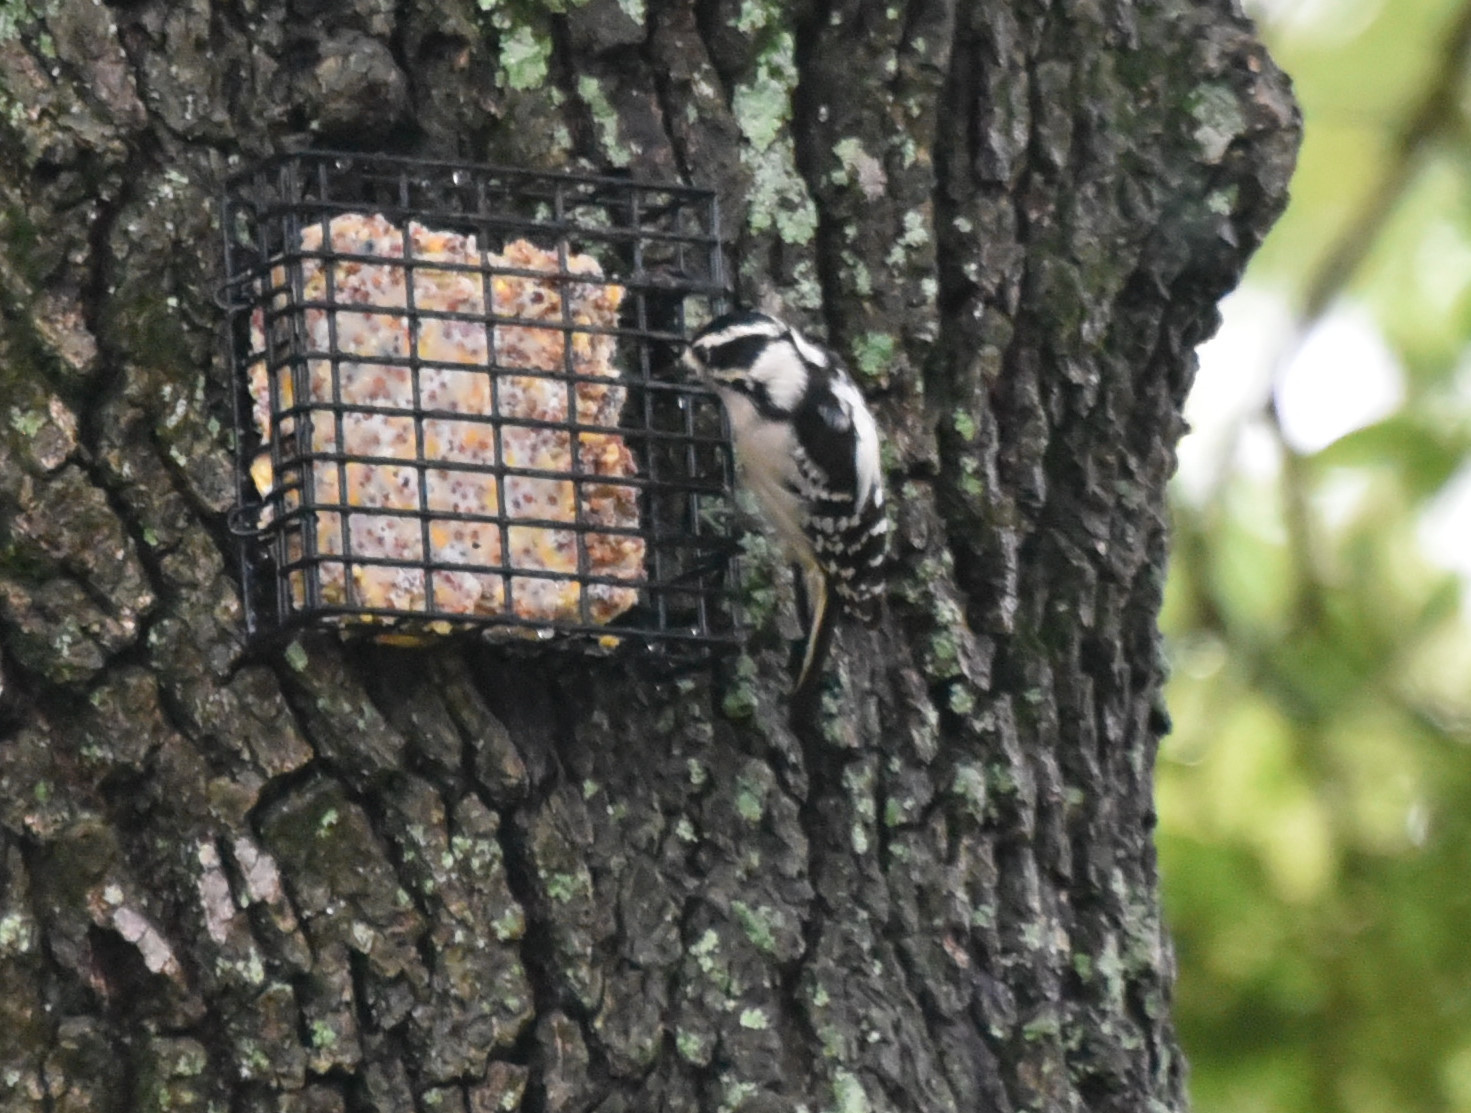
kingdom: Animalia
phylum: Chordata
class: Aves
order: Piciformes
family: Picidae
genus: Dryobates
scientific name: Dryobates pubescens
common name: Downy woodpecker
